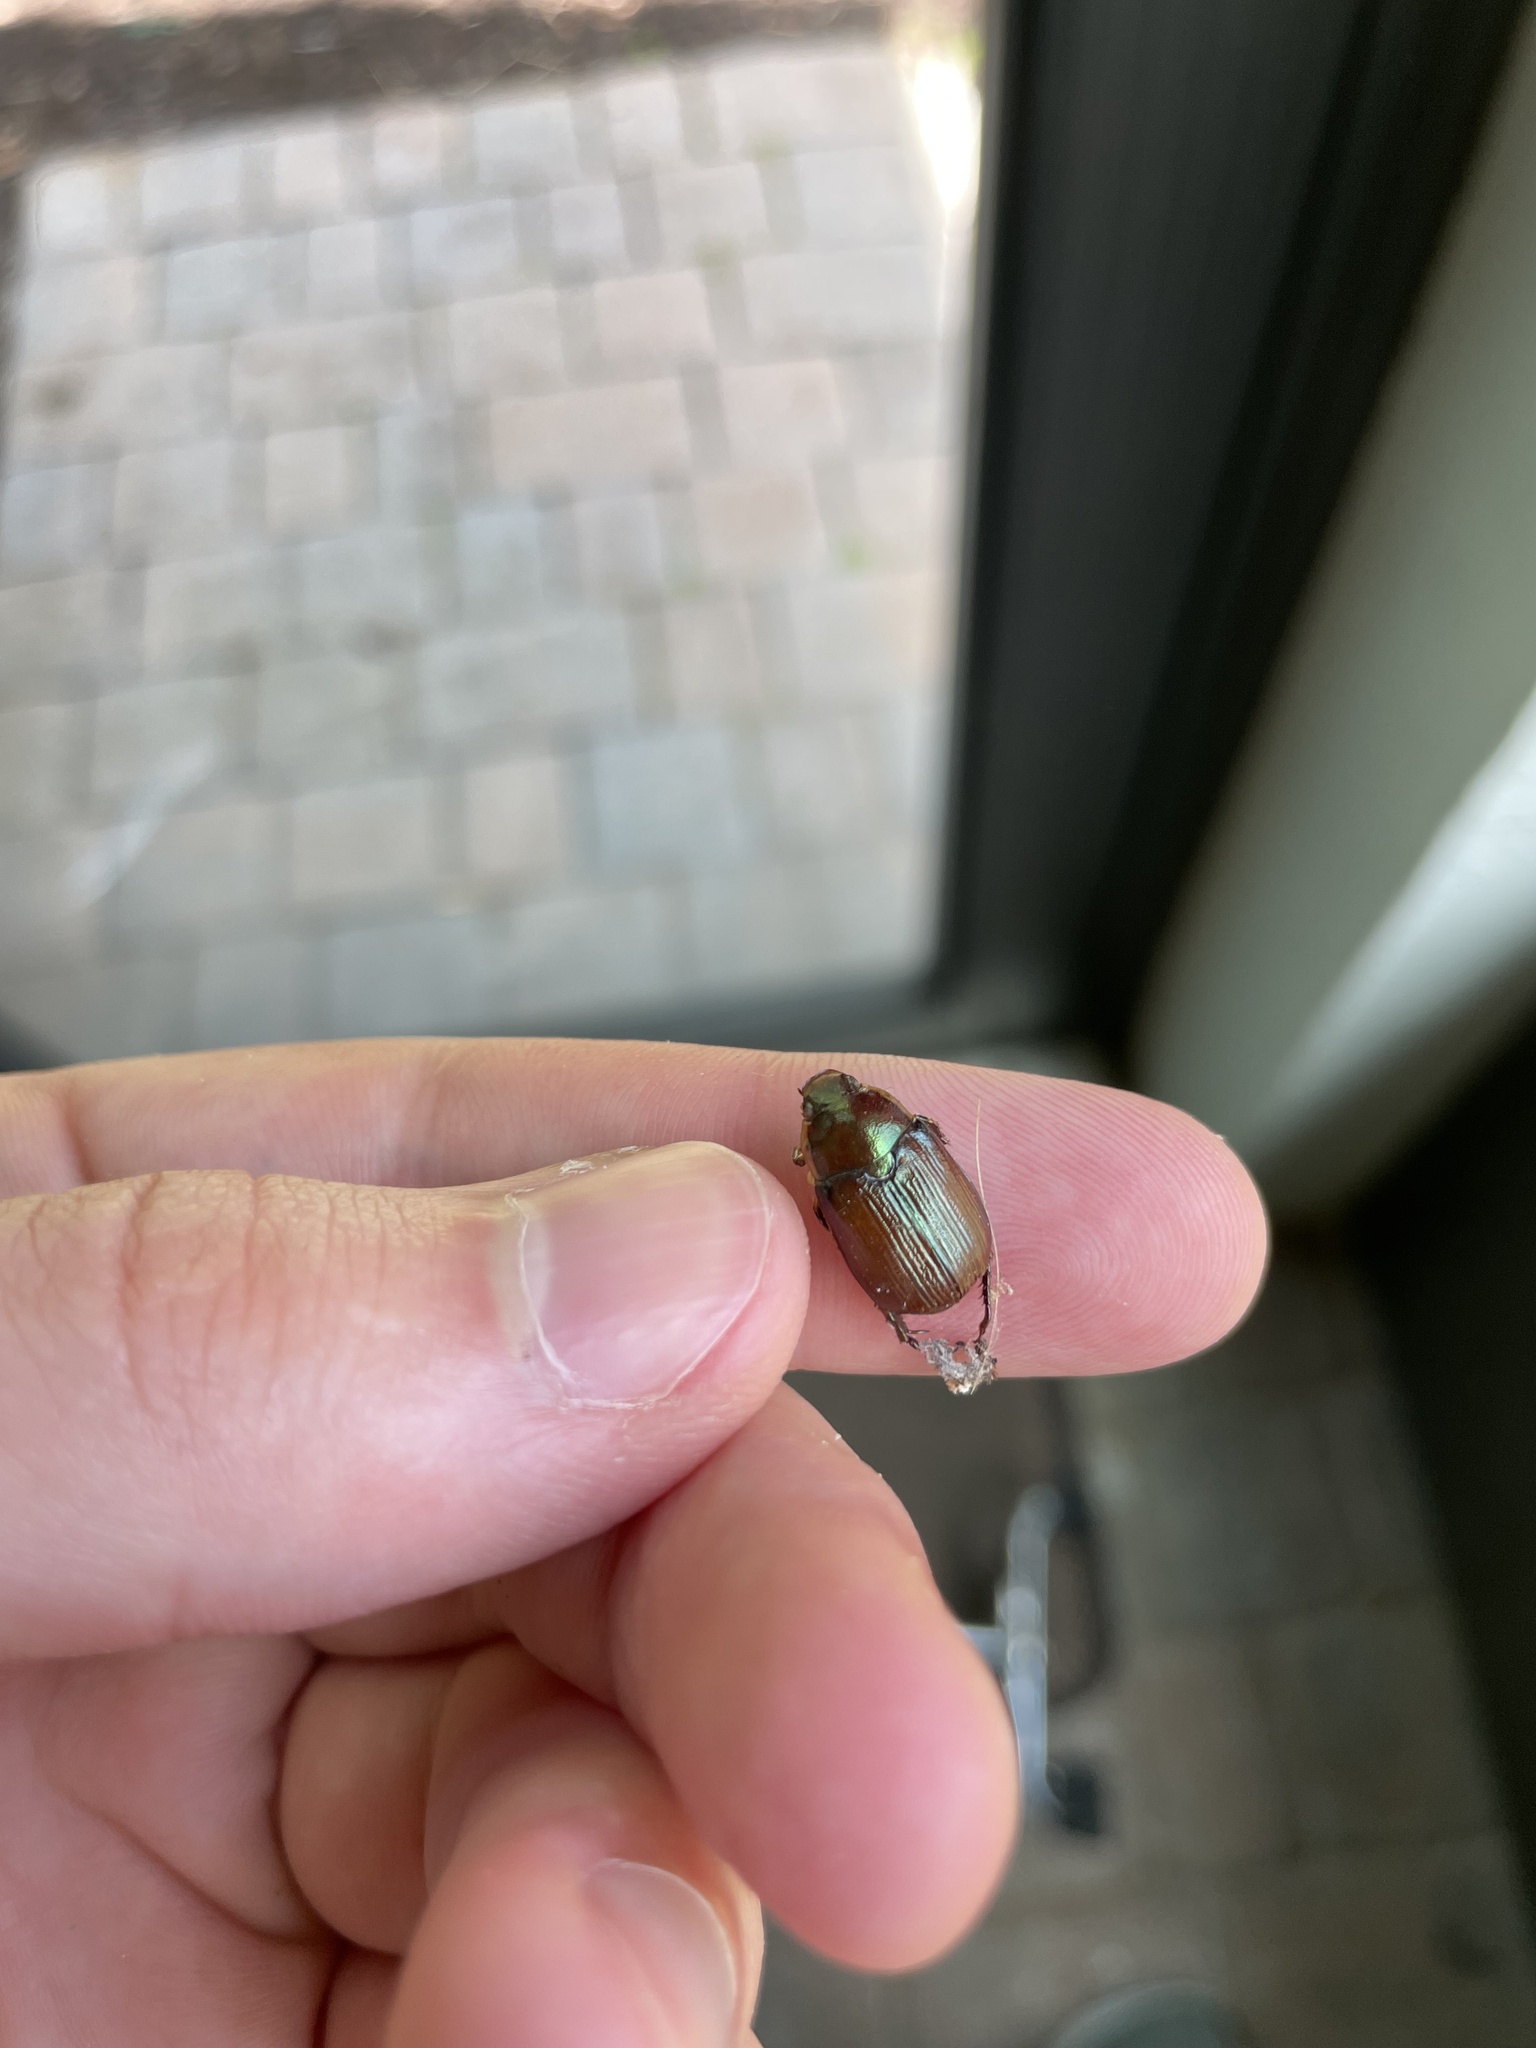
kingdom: Animalia
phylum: Arthropoda
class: Insecta
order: Coleoptera
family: Scarabaeidae
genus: Callistethus
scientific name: Callistethus marginatus
